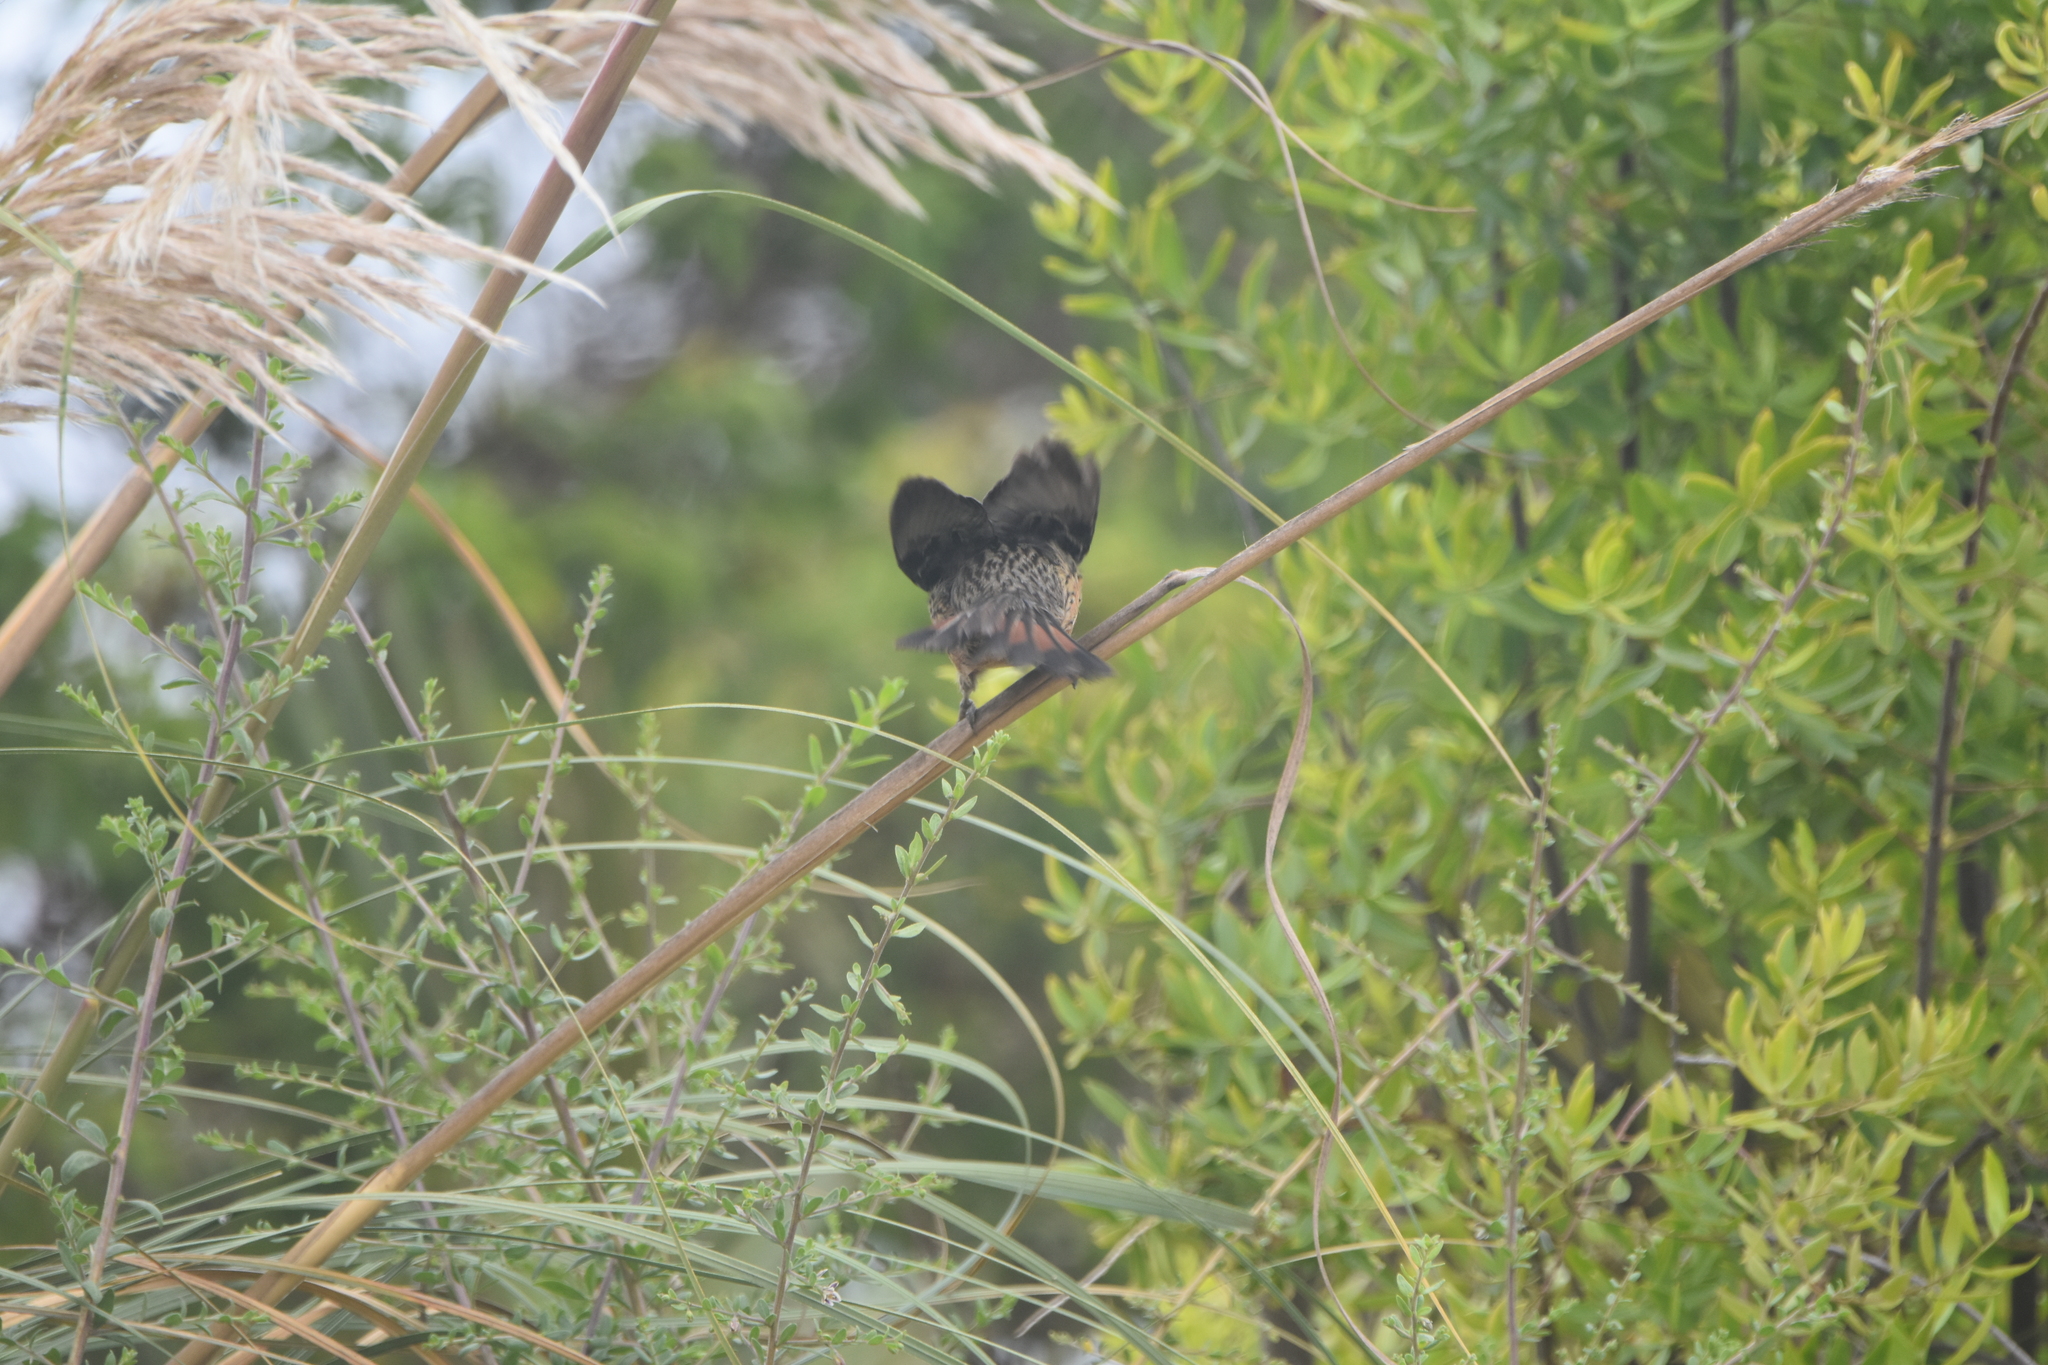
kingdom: Animalia
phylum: Chordata
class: Aves
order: Passeriformes
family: Cotingidae
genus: Phytotoma
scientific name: Phytotoma rara
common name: Rufous-tailed plantcutter
